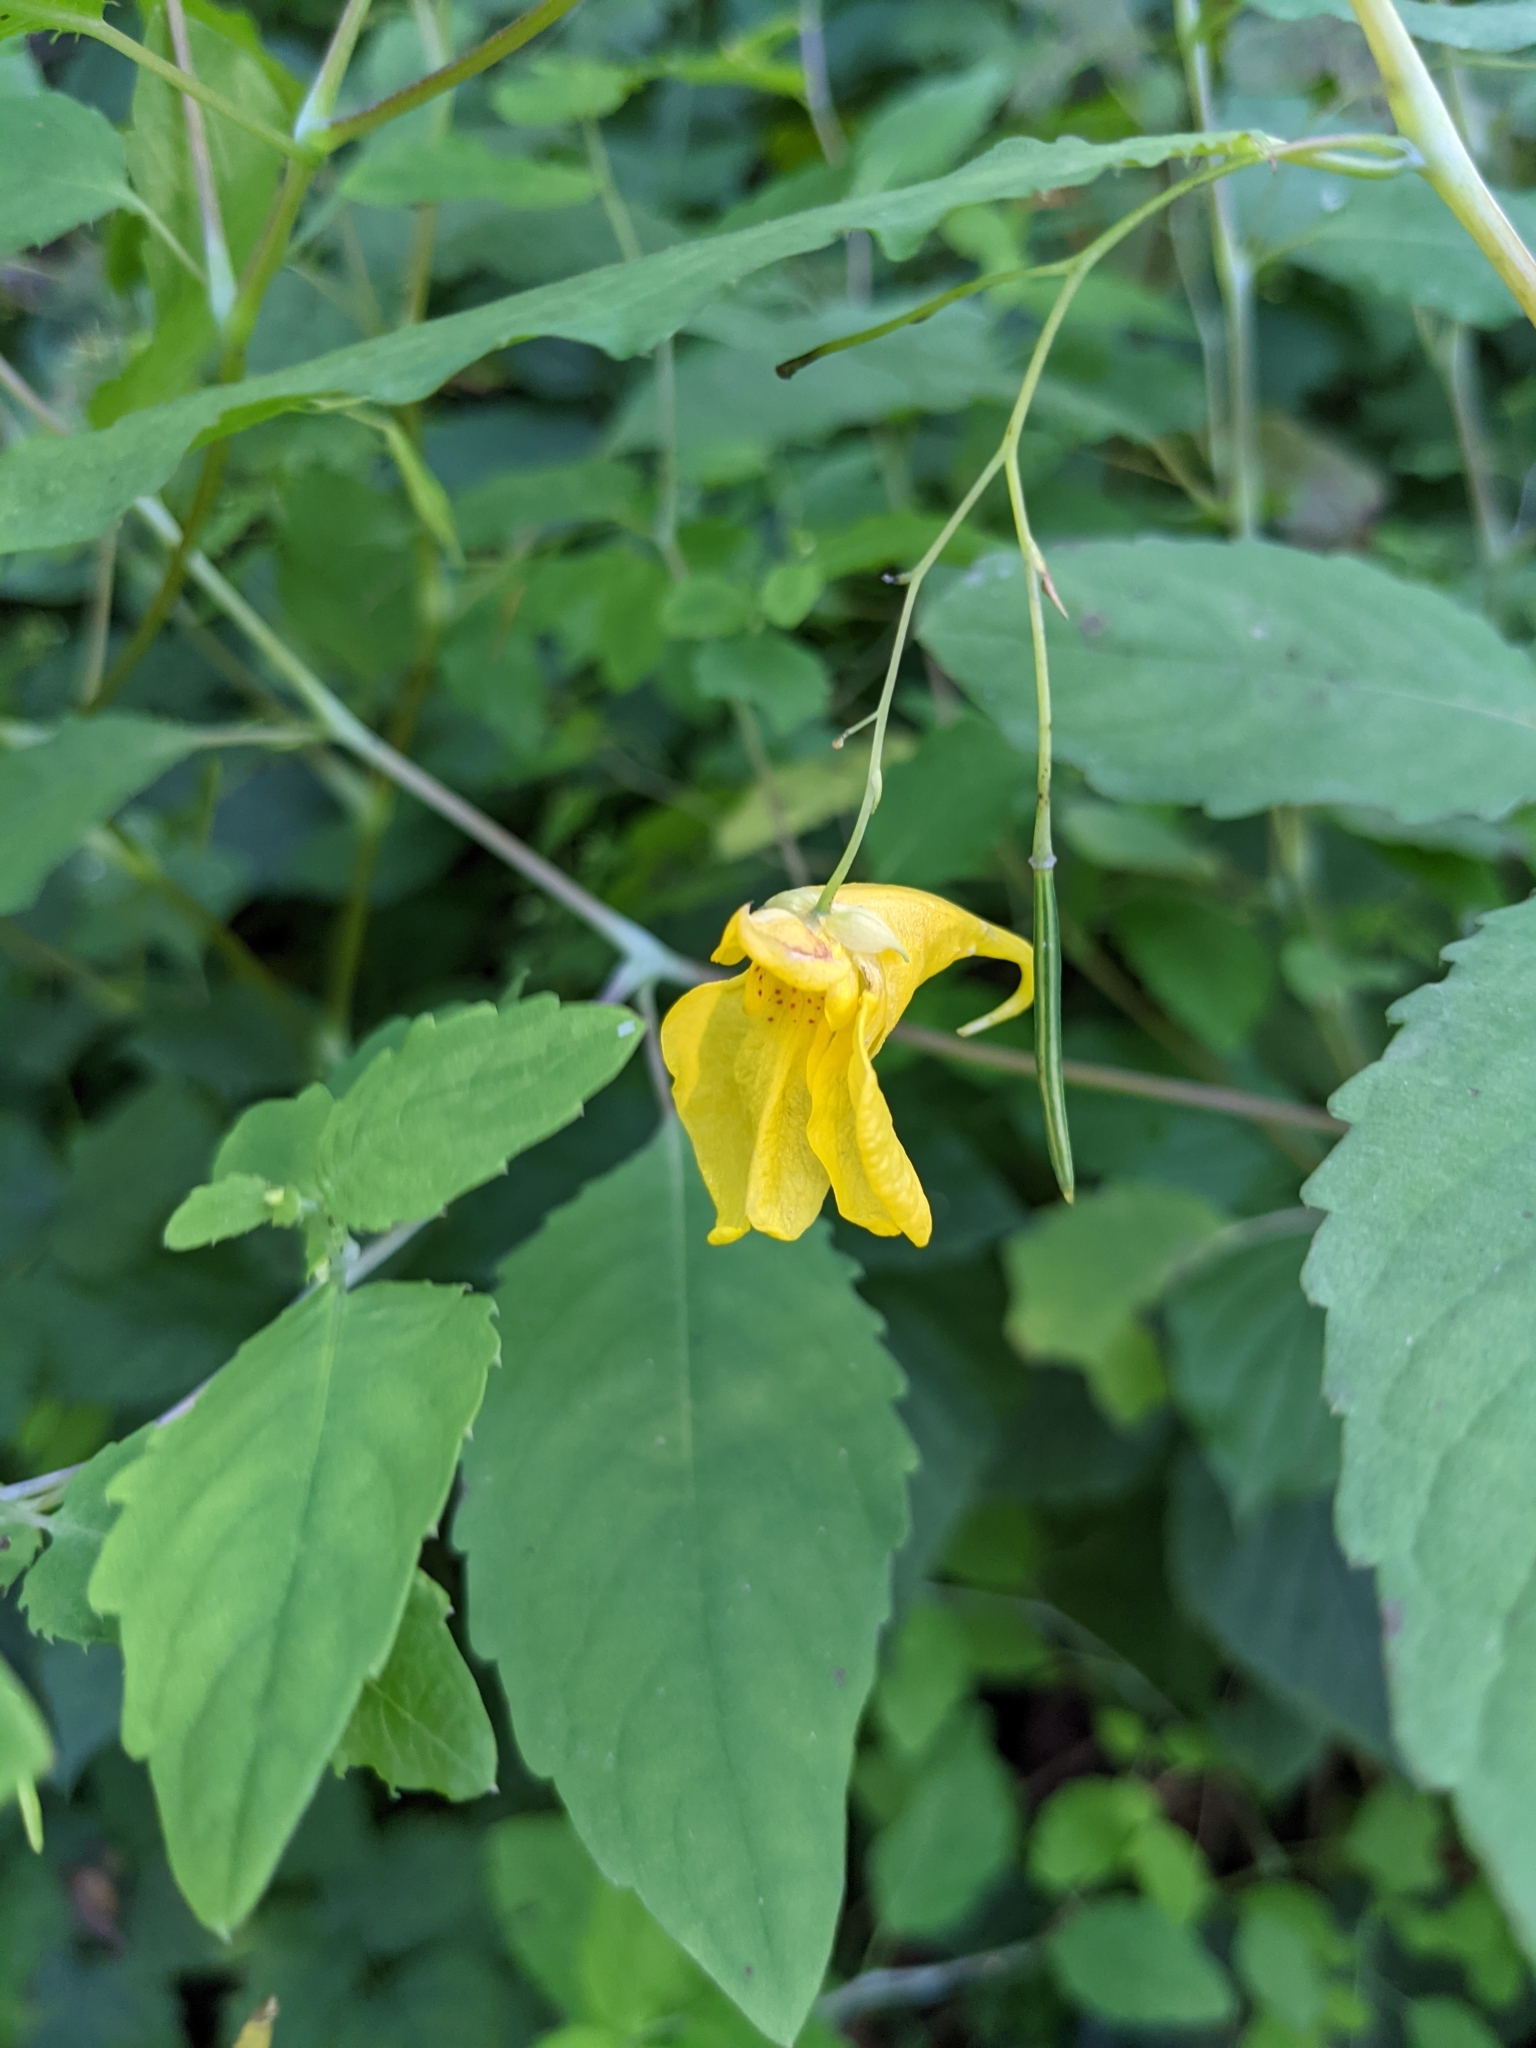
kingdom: Plantae
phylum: Tracheophyta
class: Magnoliopsida
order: Ericales
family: Balsaminaceae
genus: Impatiens
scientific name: Impatiens noli-tangere
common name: Touch-me-not balsam
